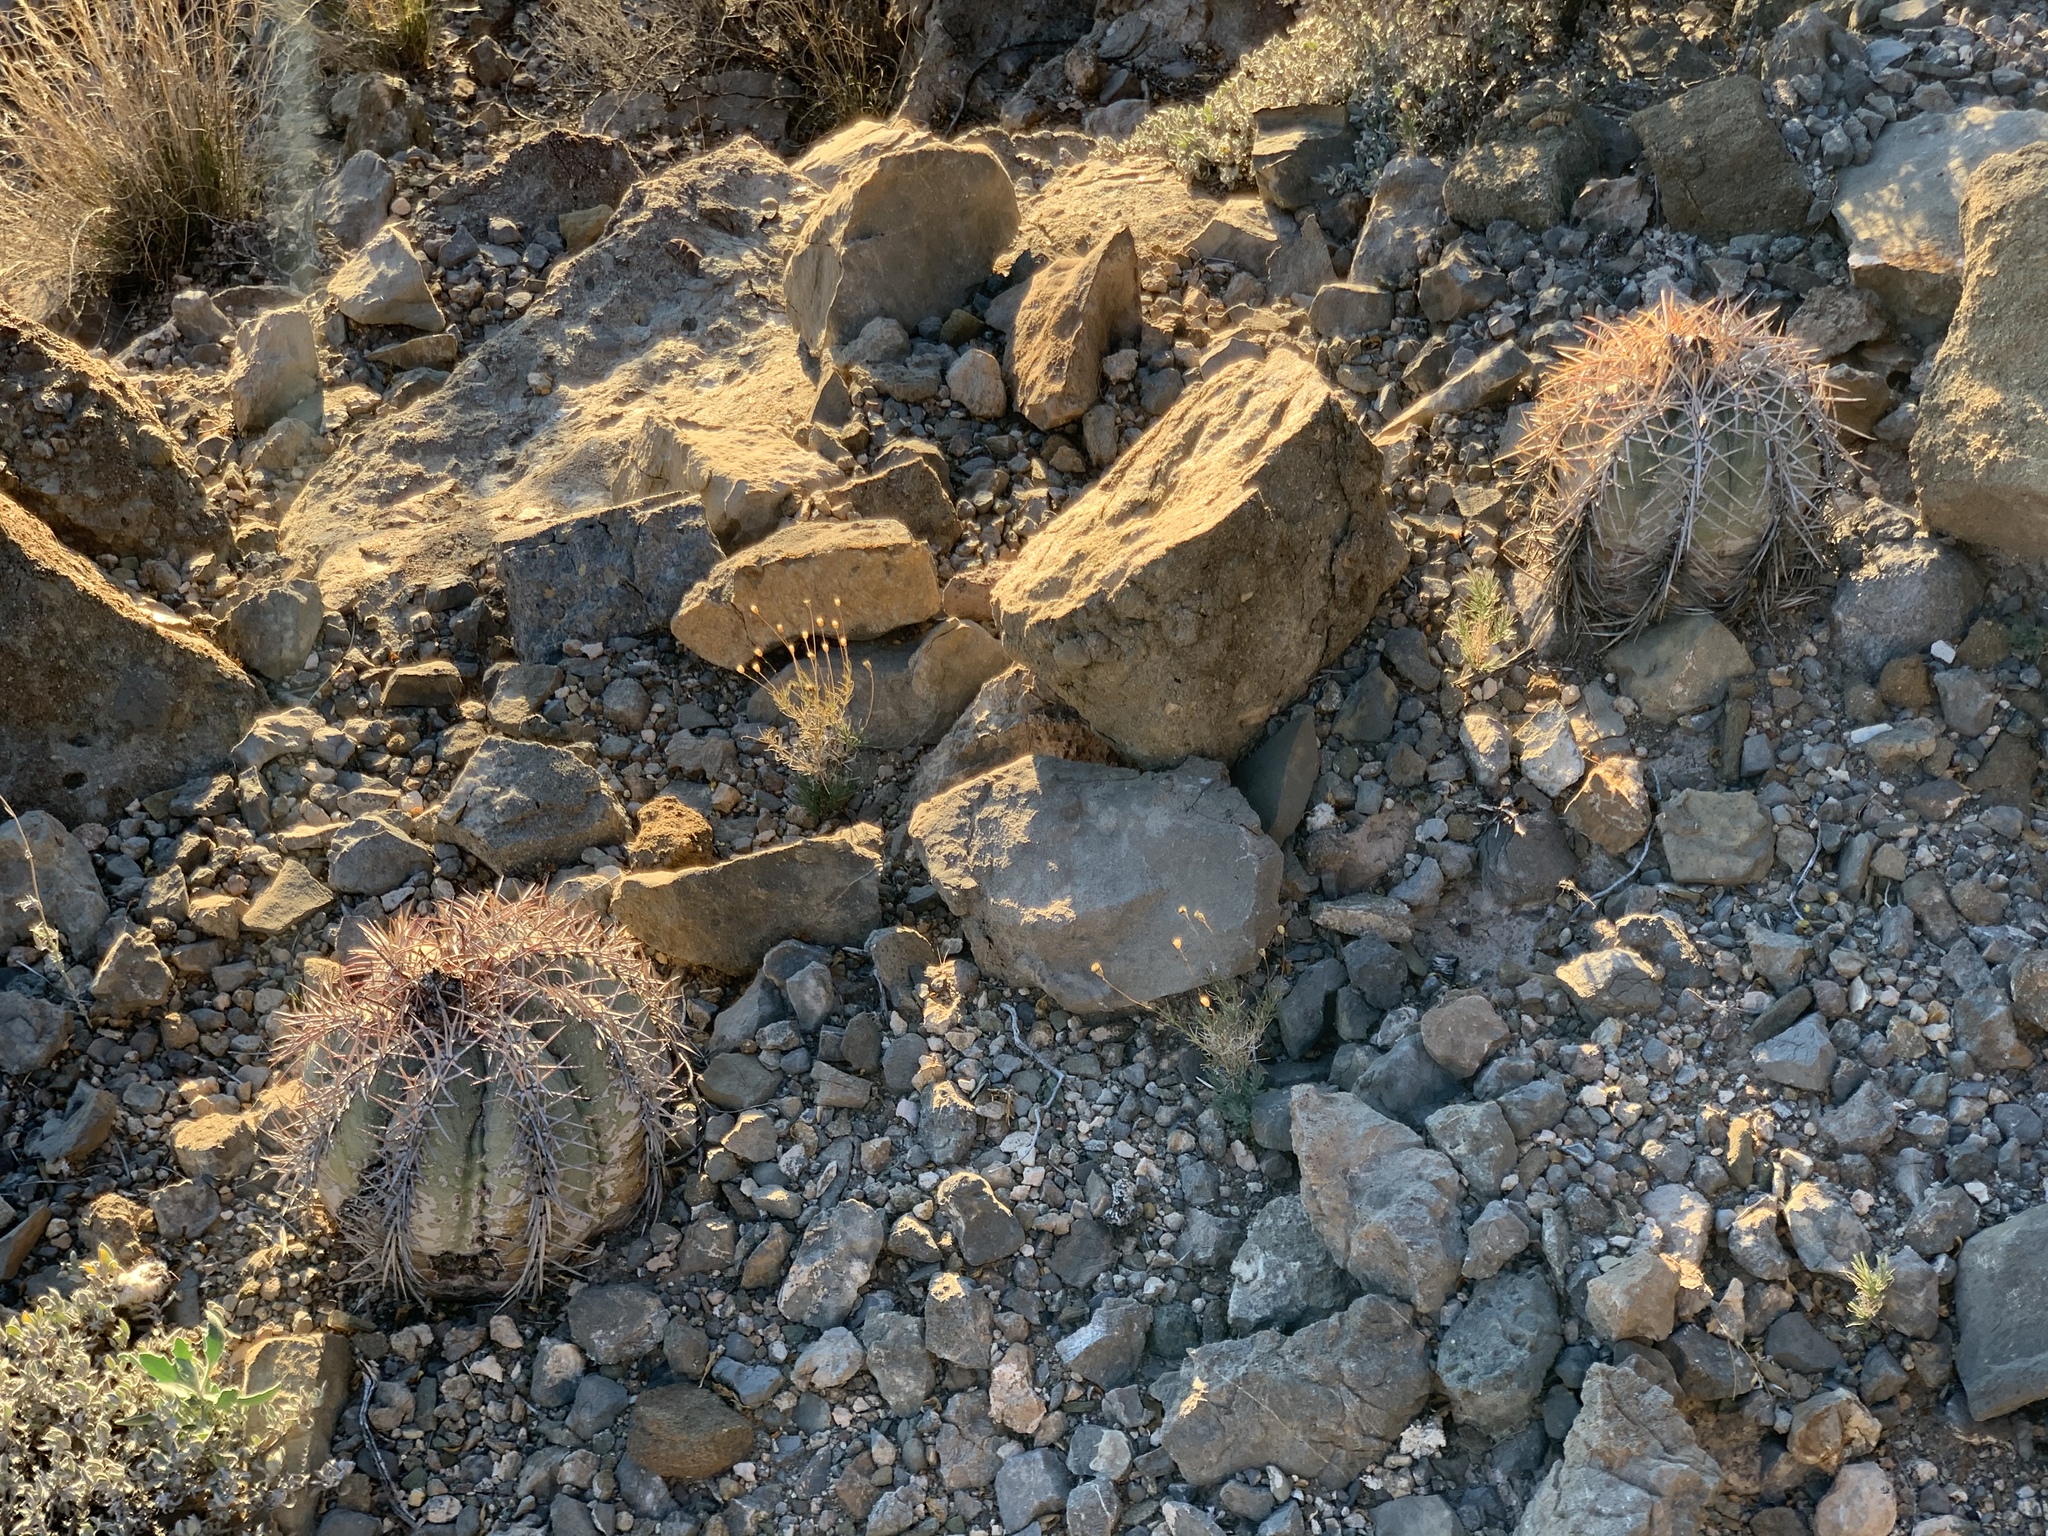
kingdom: Plantae
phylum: Tracheophyta
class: Magnoliopsida
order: Caryophyllales
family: Cactaceae
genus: Echinocactus
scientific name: Echinocactus horizonthalonius
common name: Devilshead
